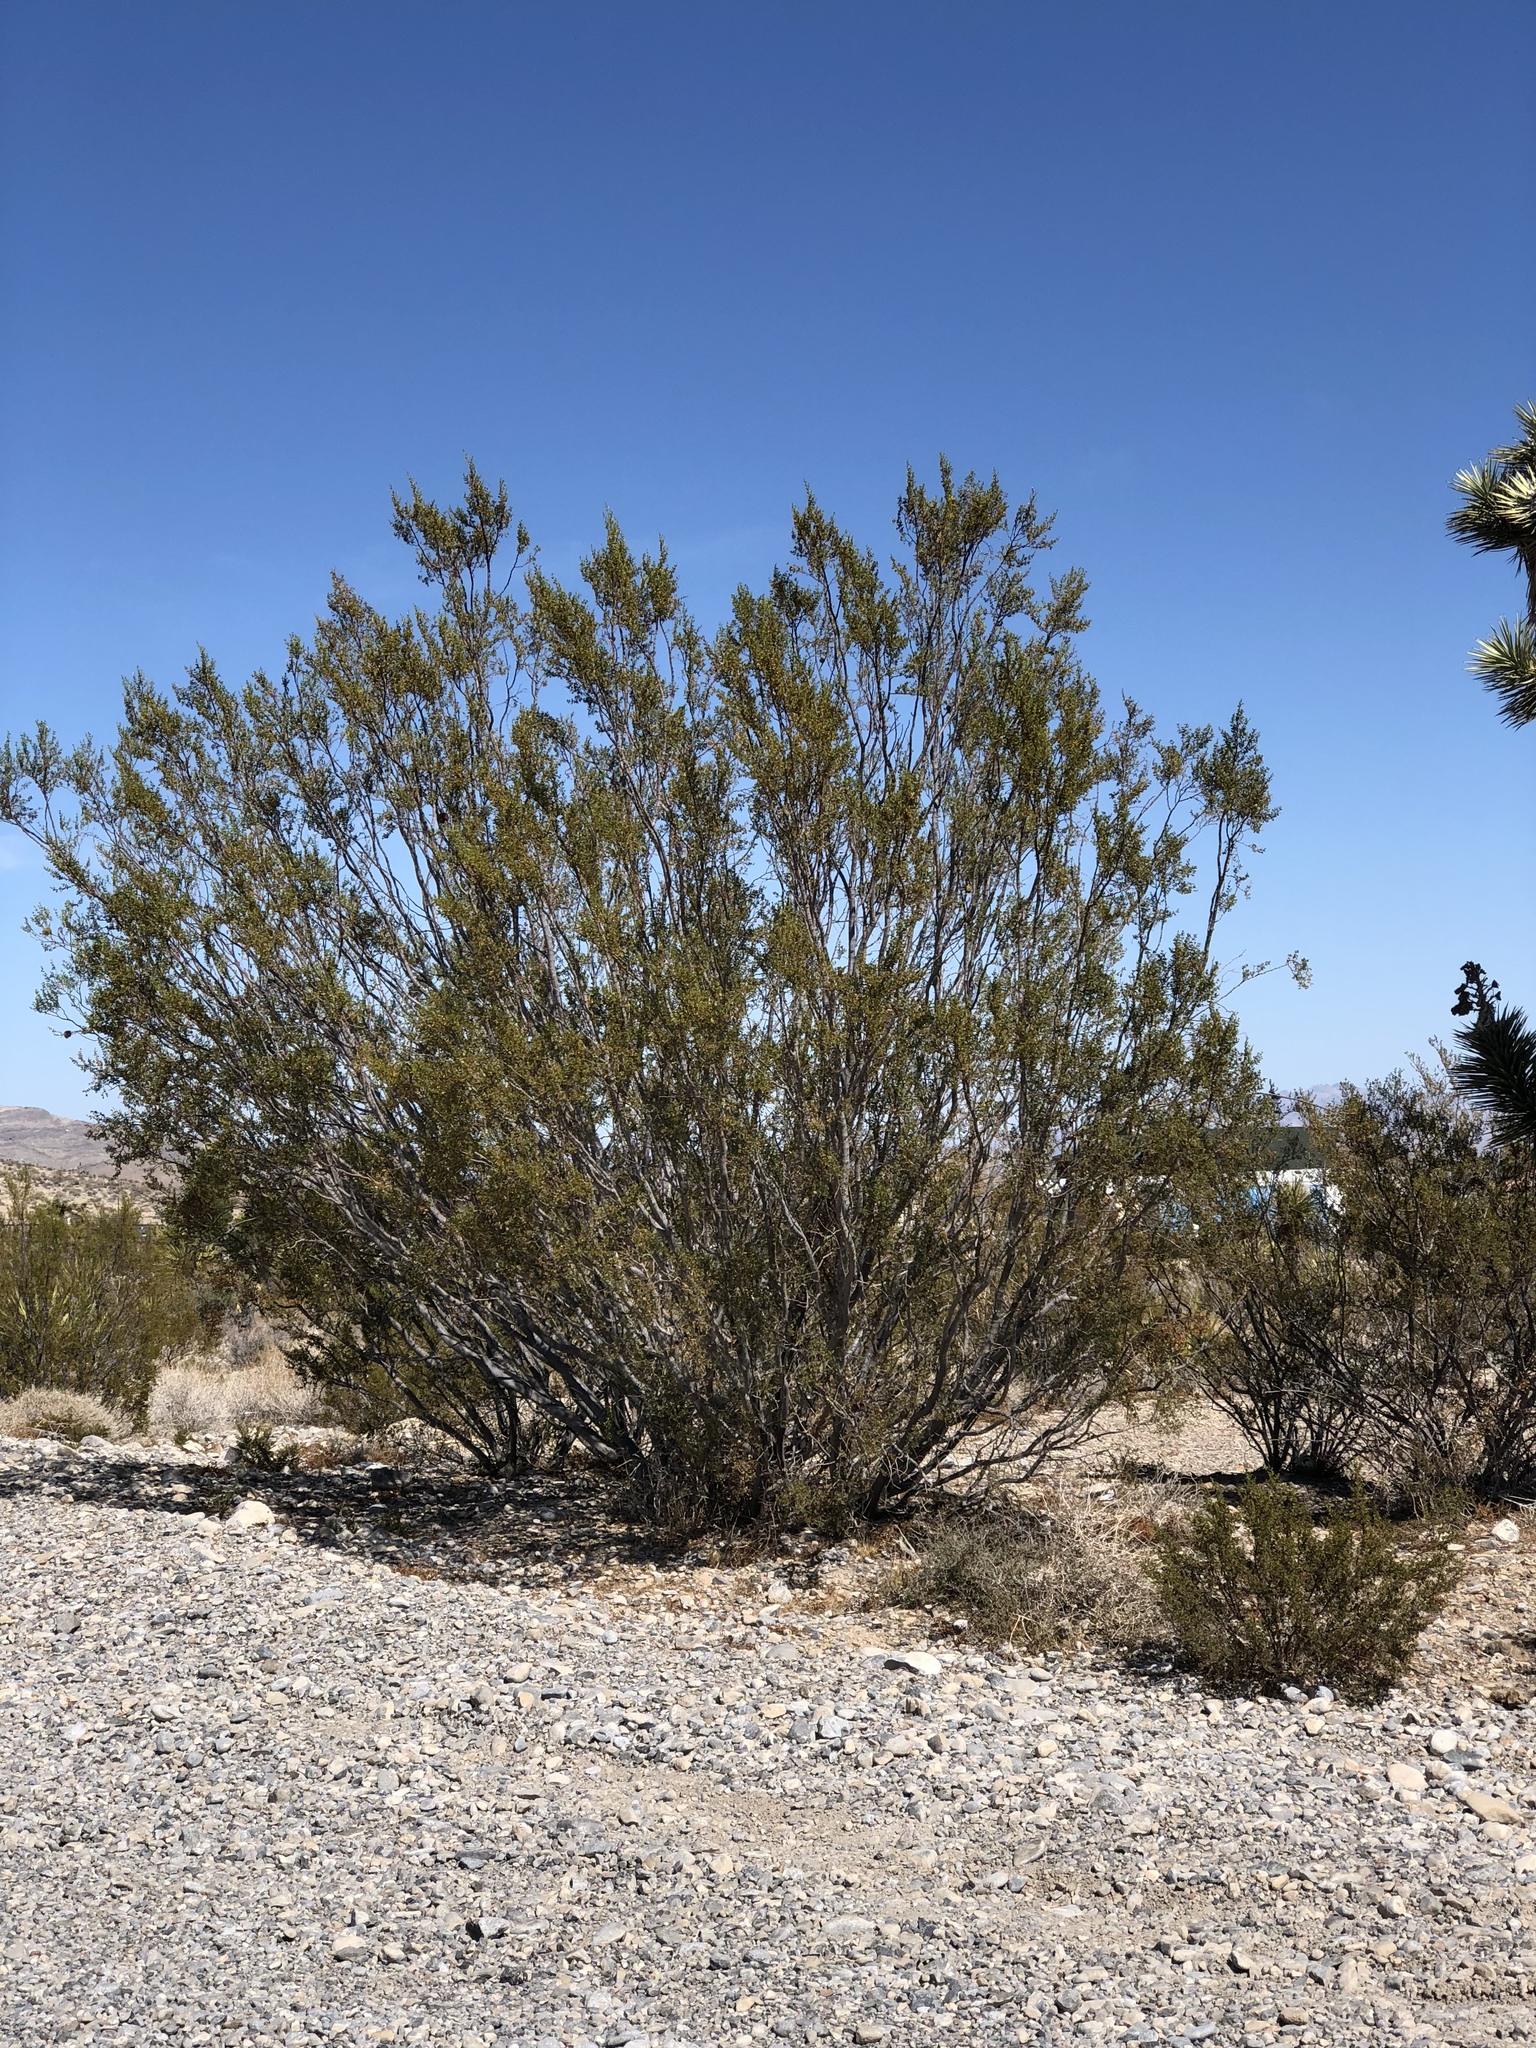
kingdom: Plantae
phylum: Tracheophyta
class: Magnoliopsida
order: Zygophyllales
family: Zygophyllaceae
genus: Larrea
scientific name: Larrea tridentata
